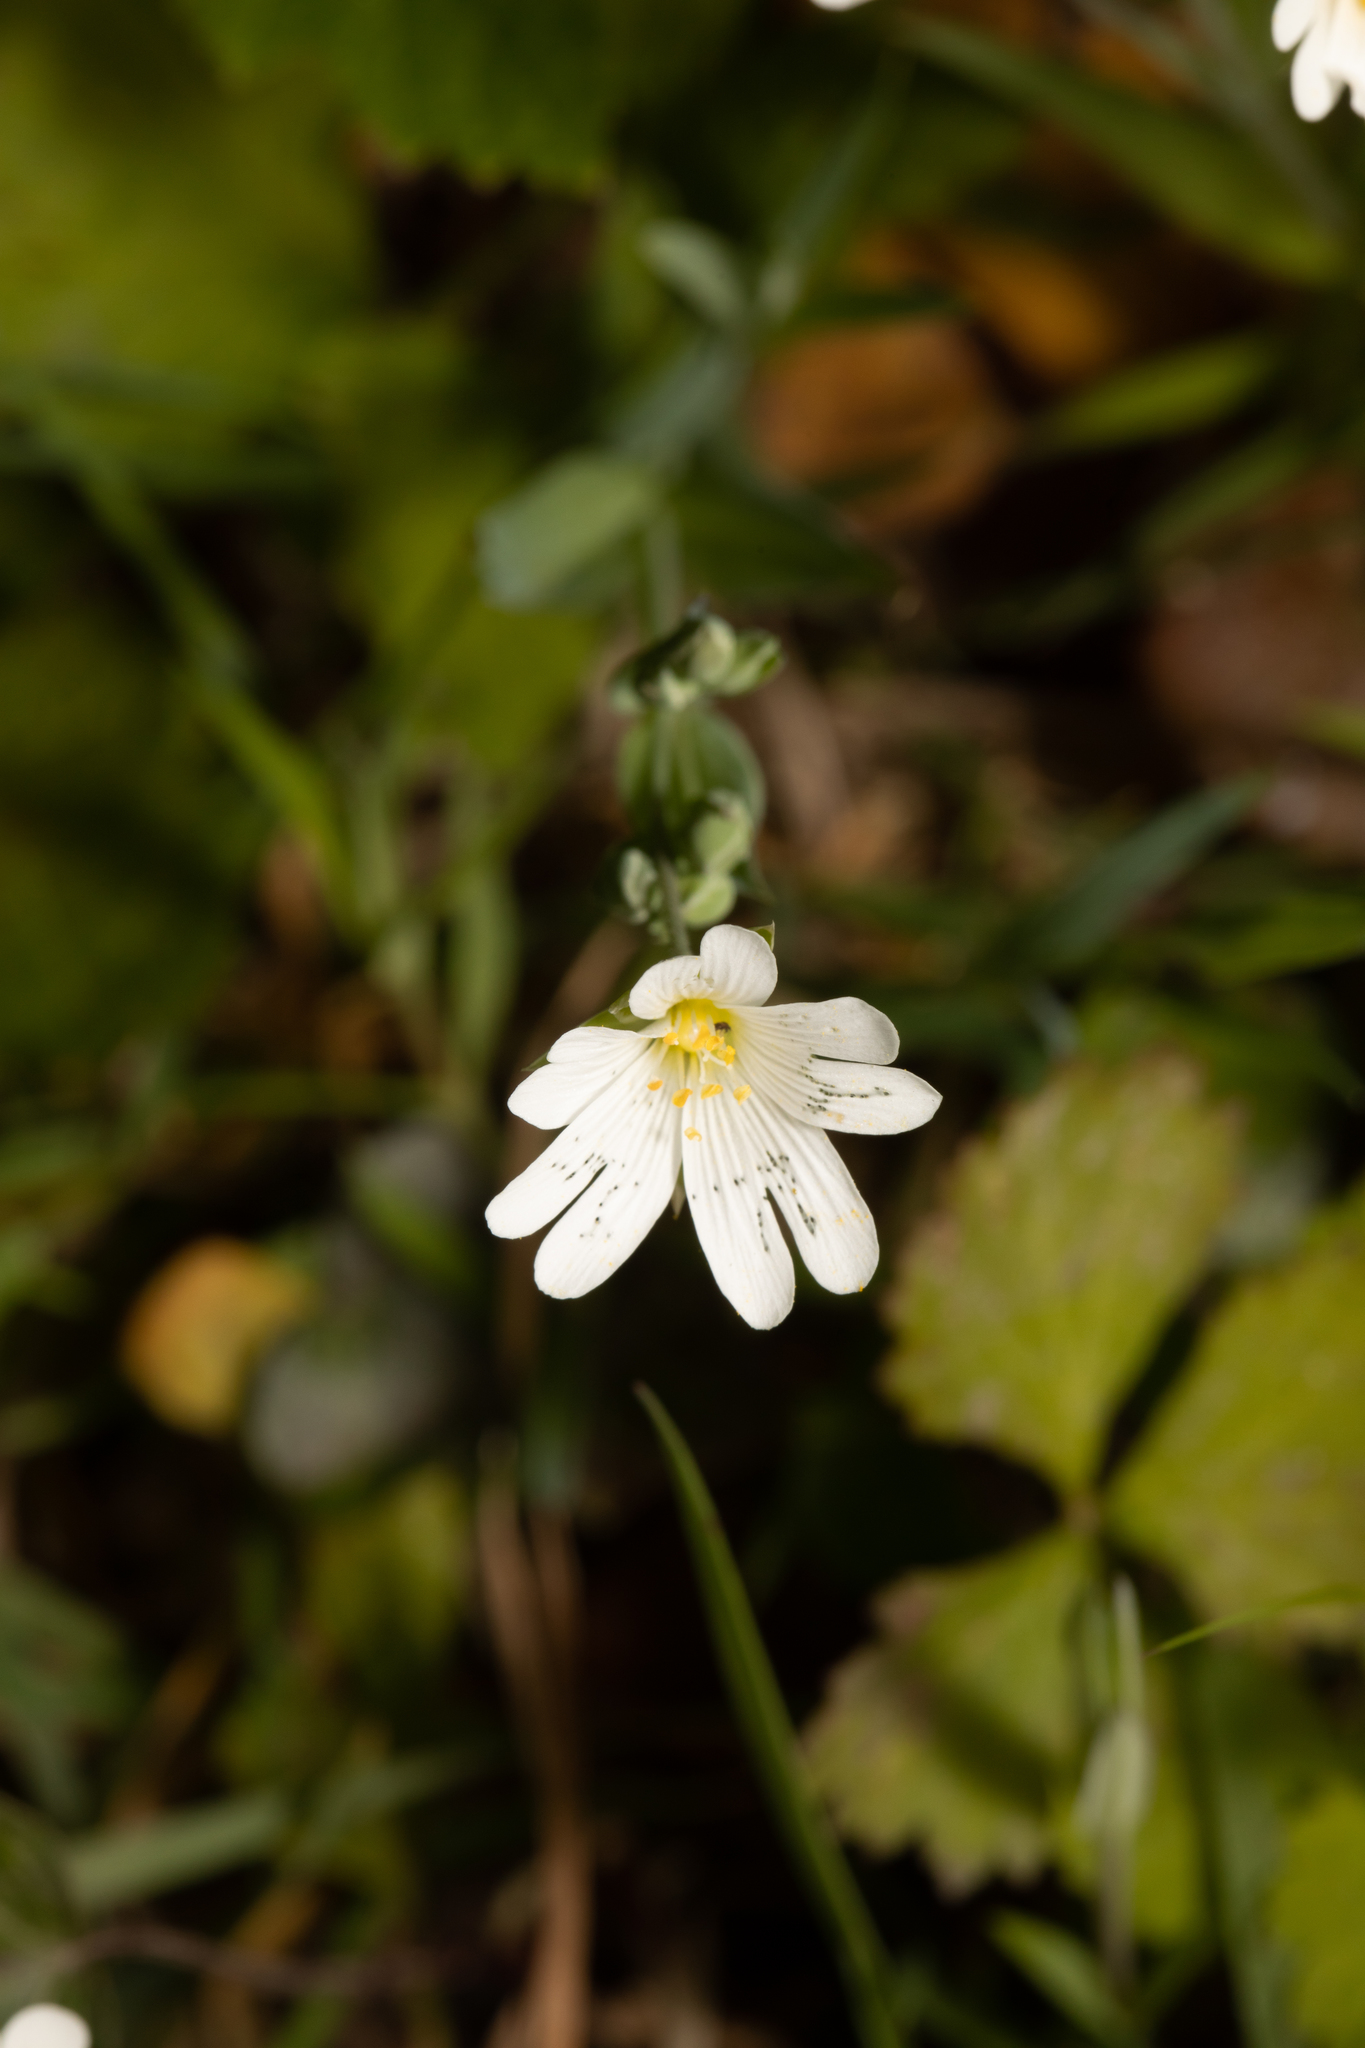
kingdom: Plantae
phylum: Tracheophyta
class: Magnoliopsida
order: Caryophyllales
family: Caryophyllaceae
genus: Rabelera
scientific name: Rabelera holostea
